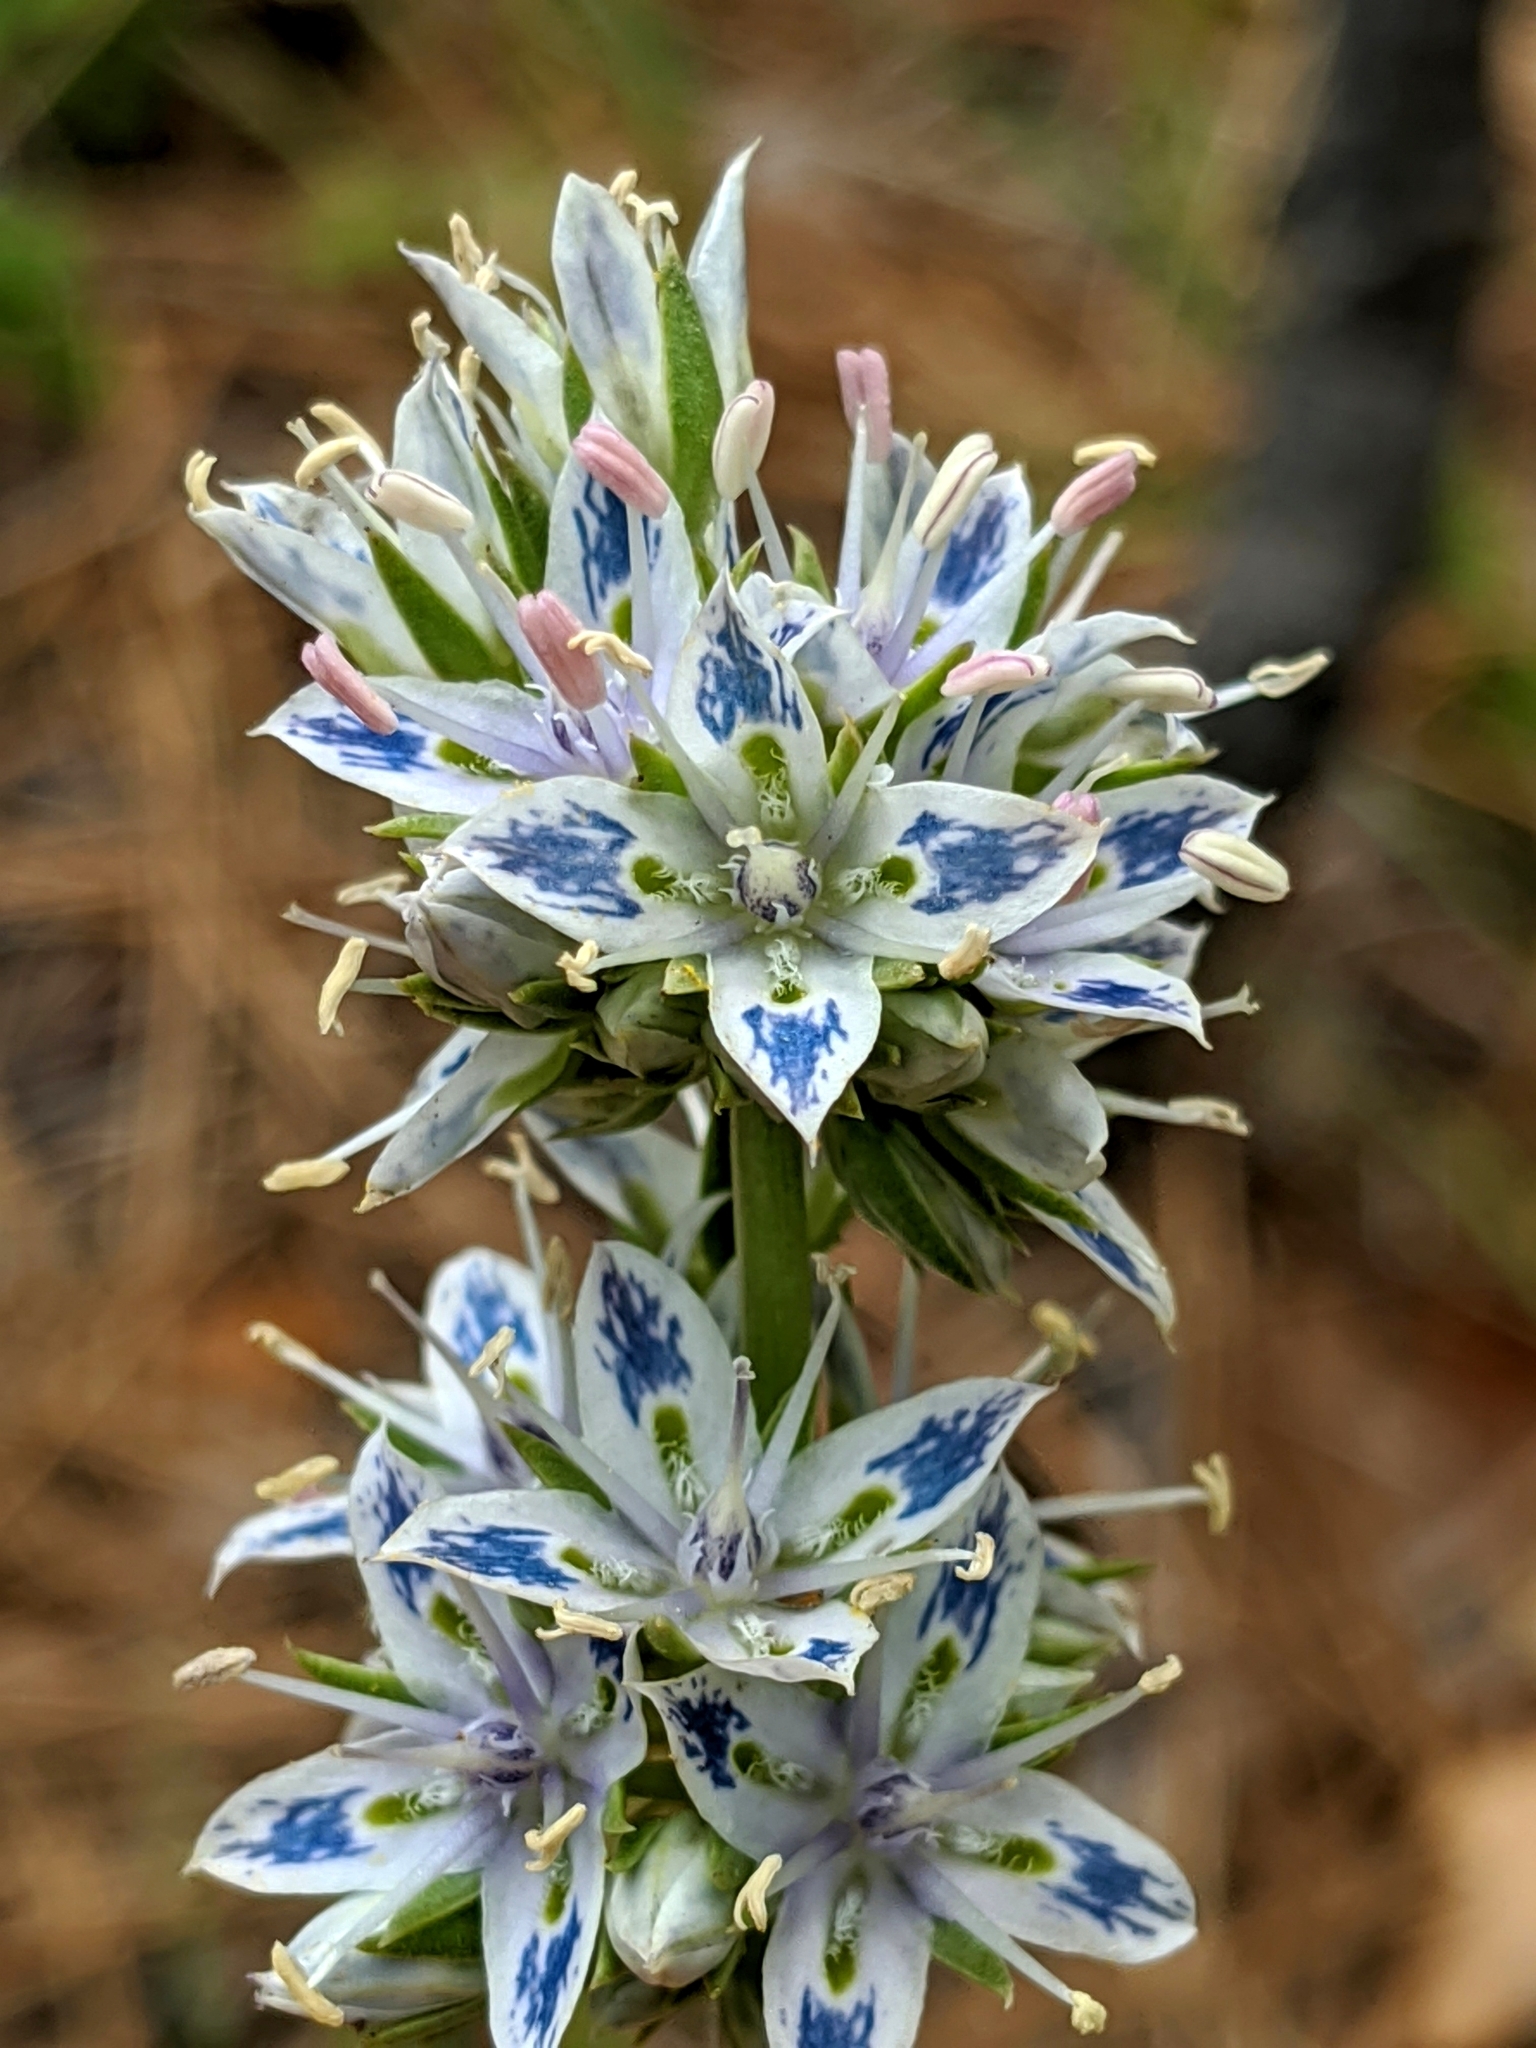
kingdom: Plantae
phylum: Tracheophyta
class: Magnoliopsida
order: Gentianales
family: Gentianaceae
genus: Frasera
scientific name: Frasera albicaulis
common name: Cusick's frasera
